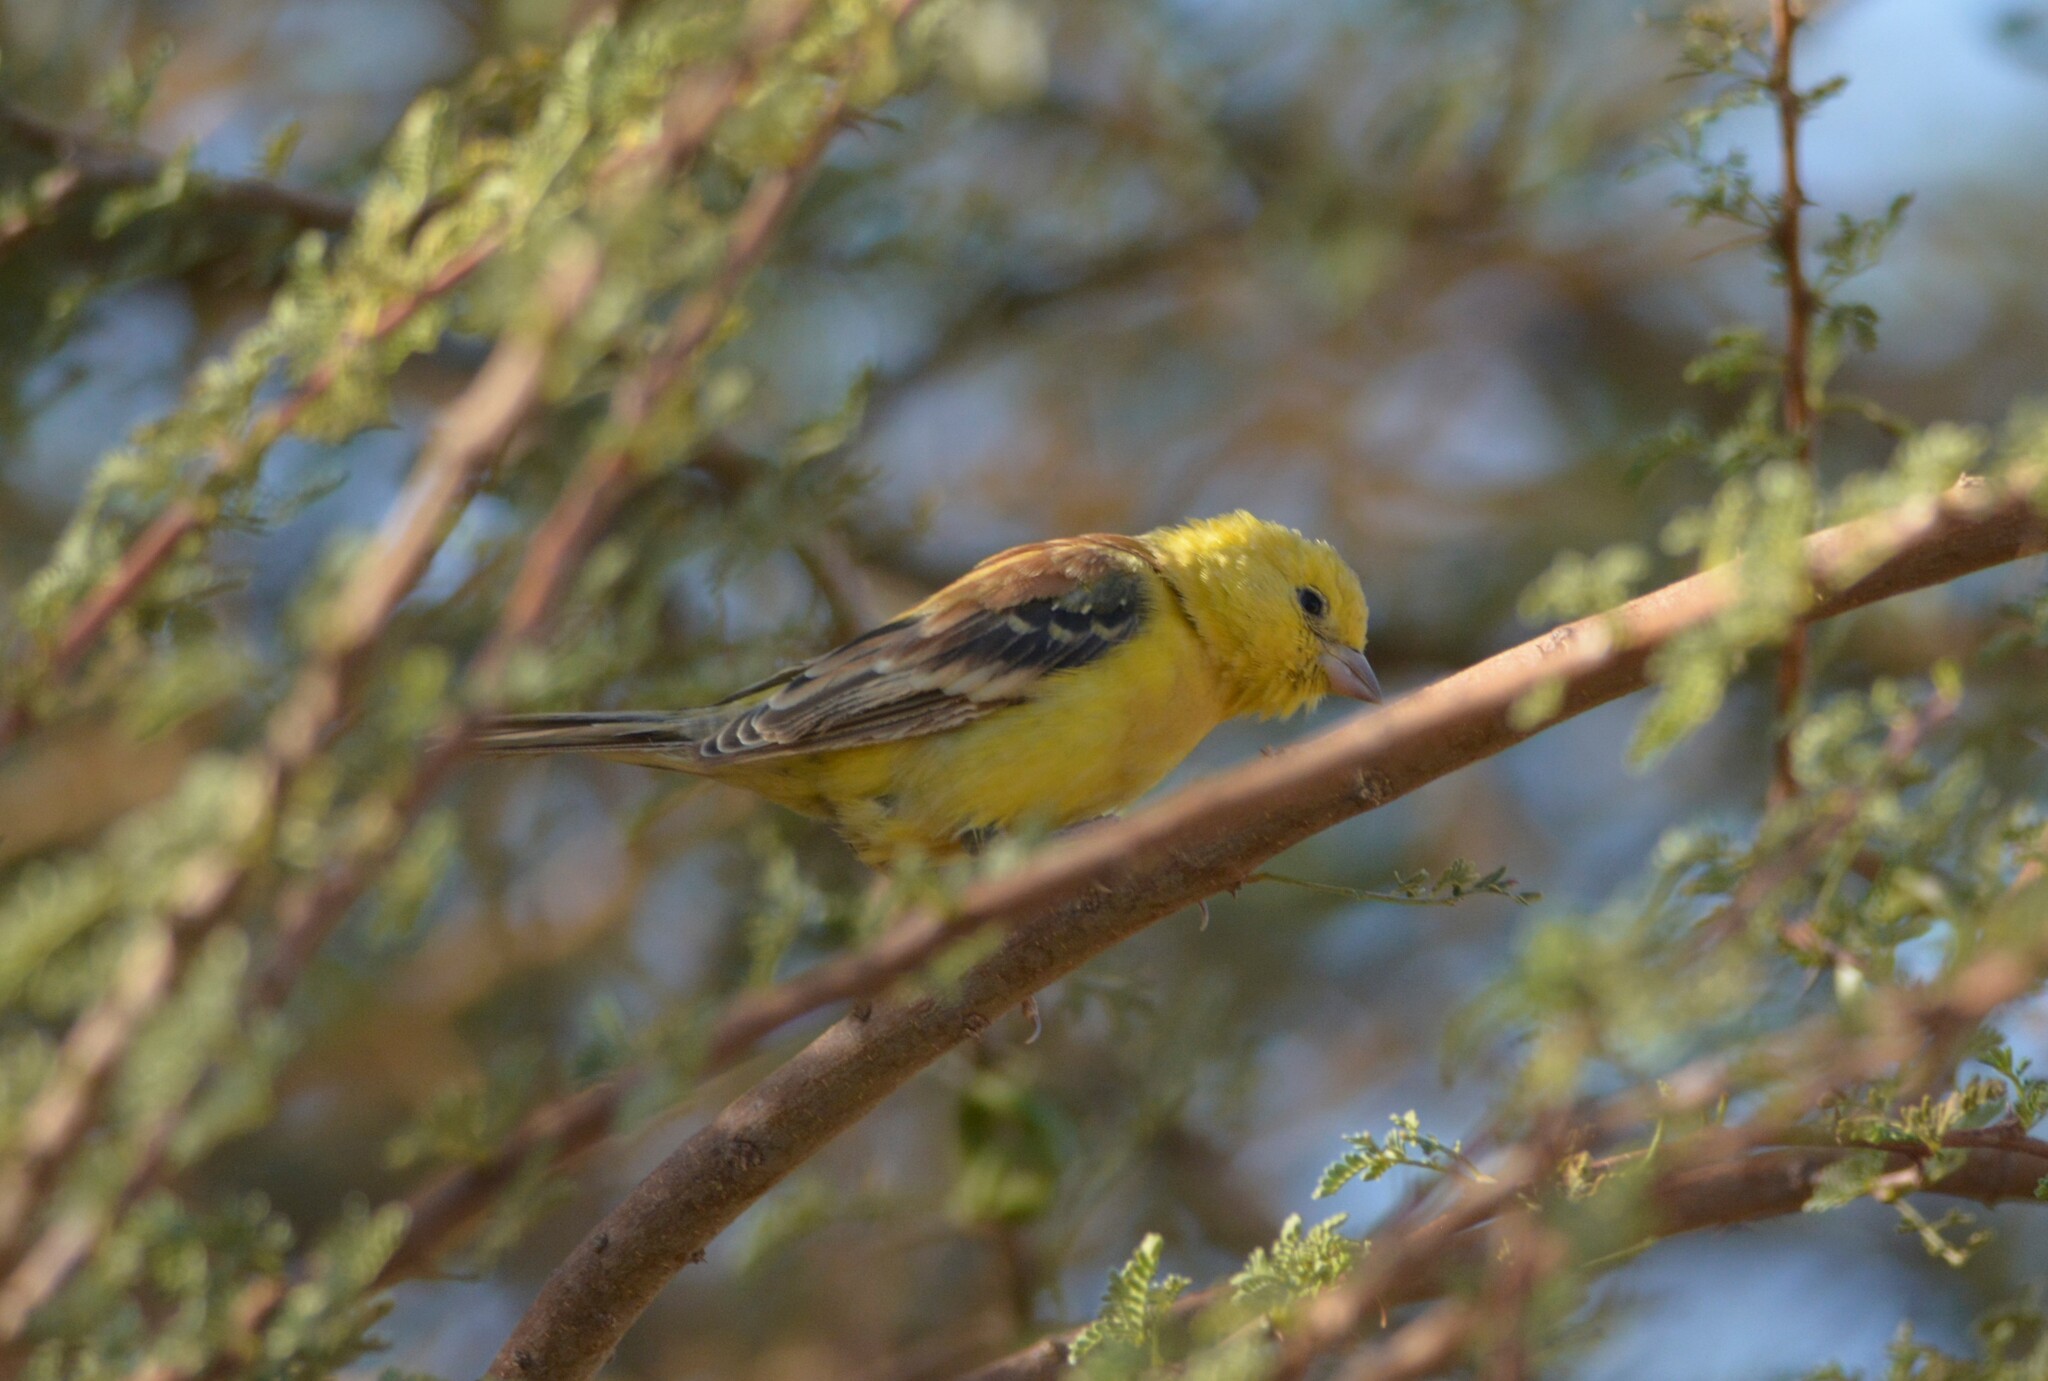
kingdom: Animalia
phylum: Chordata
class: Aves
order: Passeriformes
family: Passeridae
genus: Passer
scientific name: Passer luteus
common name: Sudan golden sparrow
